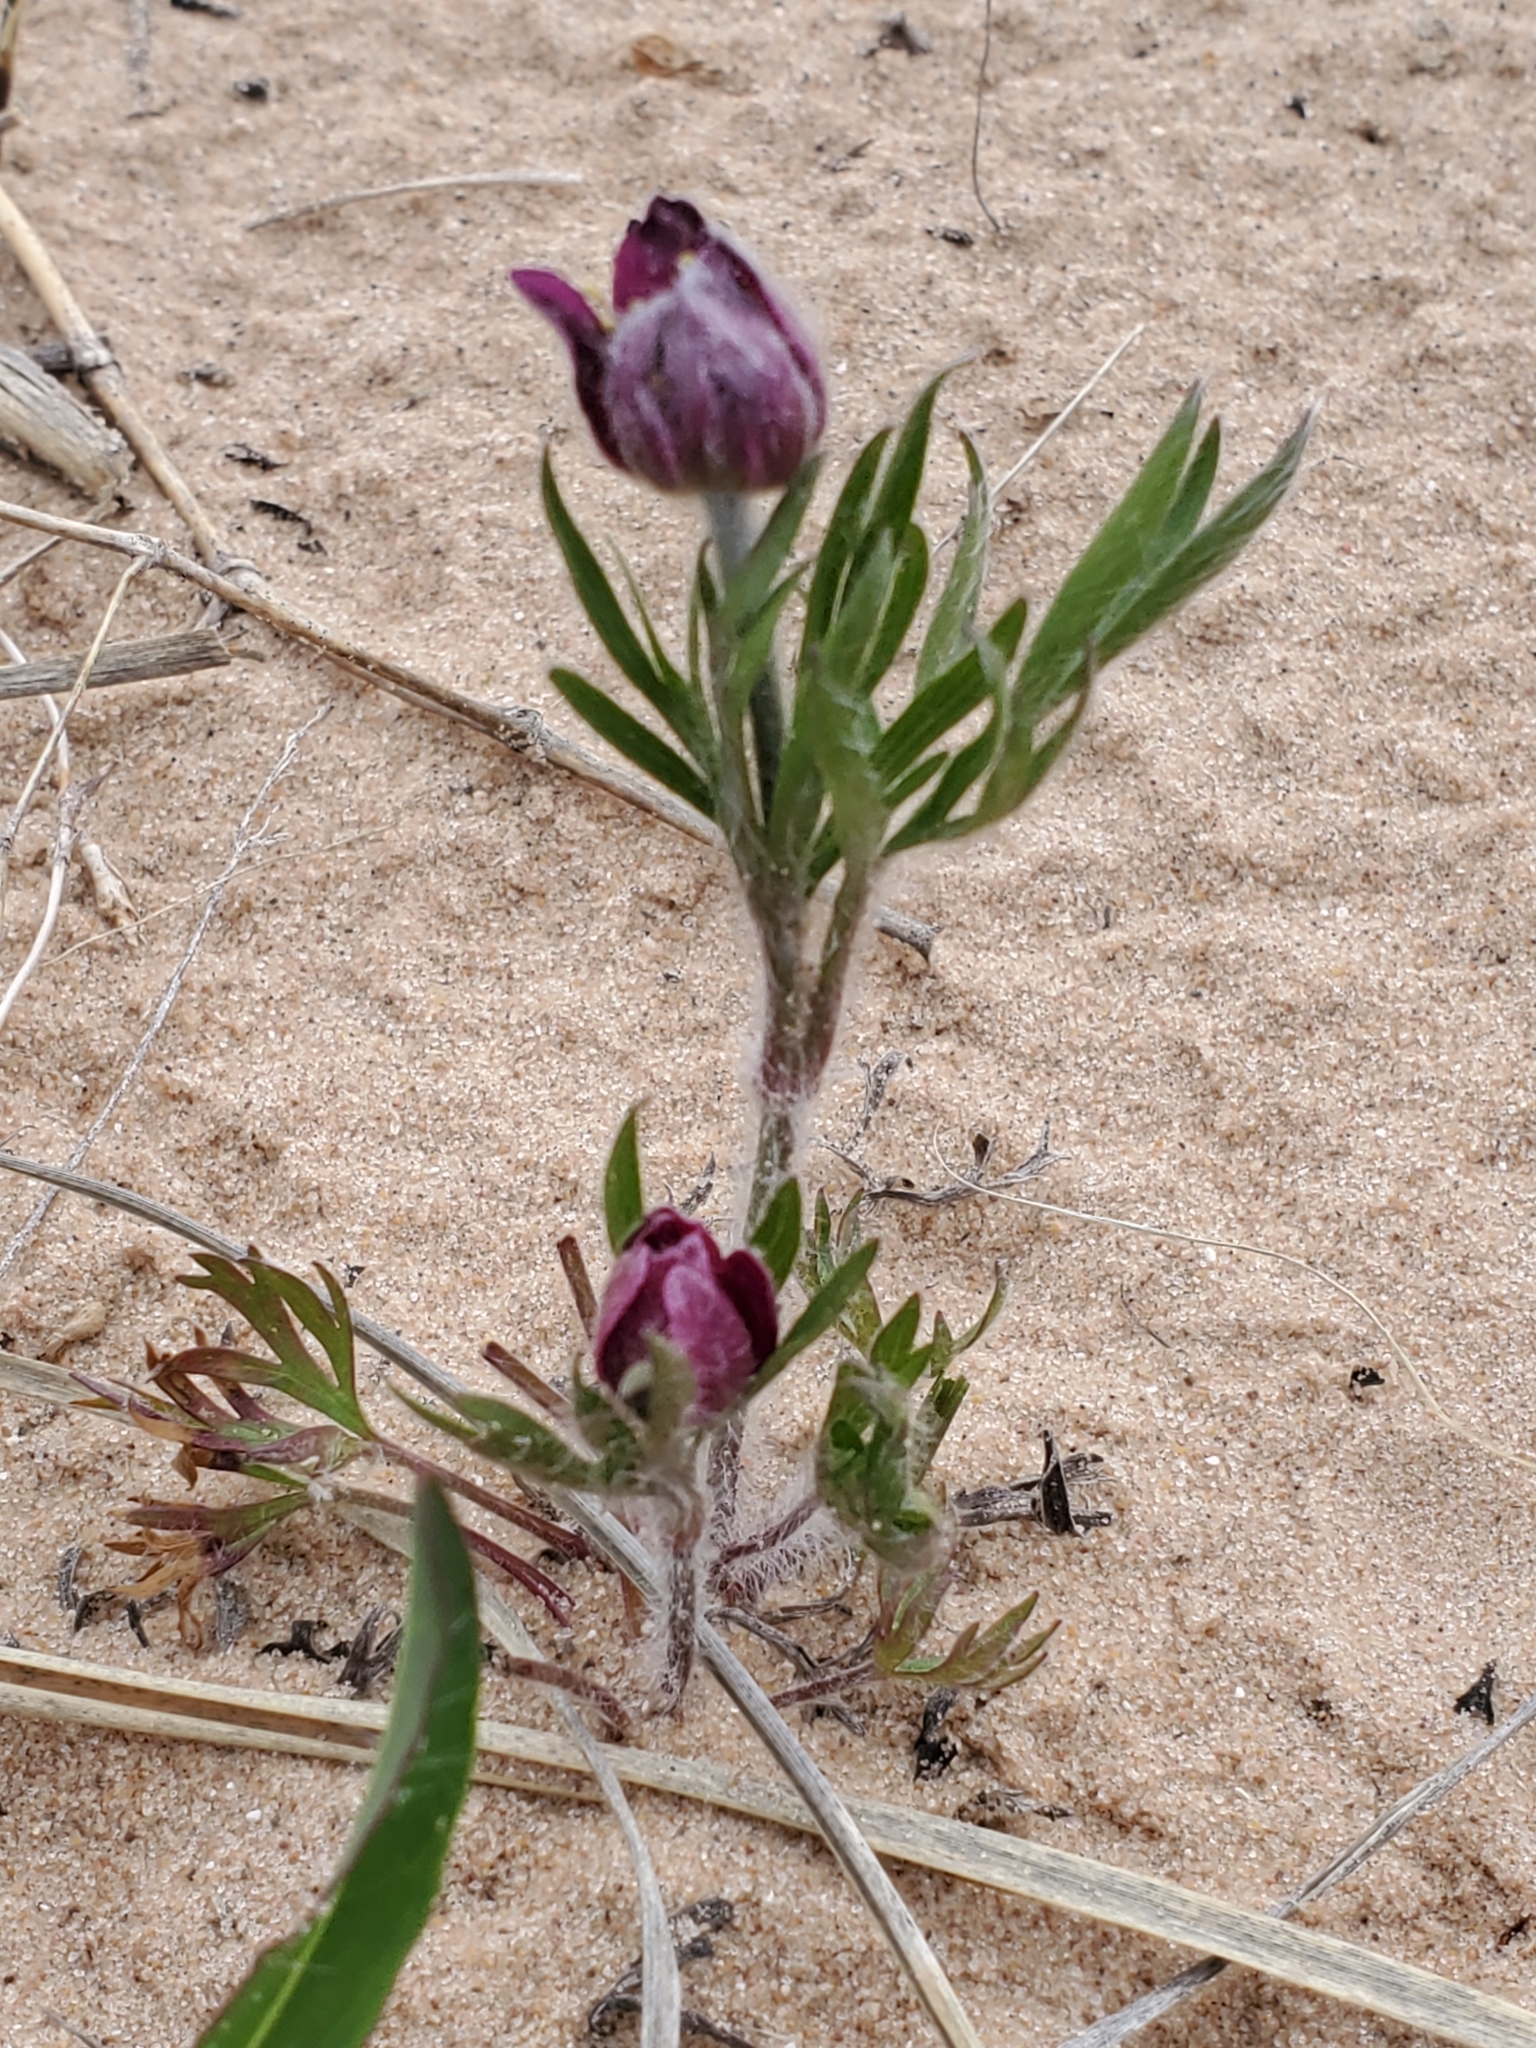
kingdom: Plantae
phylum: Tracheophyta
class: Magnoliopsida
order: Ranunculales
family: Ranunculaceae
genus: Anemone
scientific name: Anemone multifida
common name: Bird's-foot anemone
